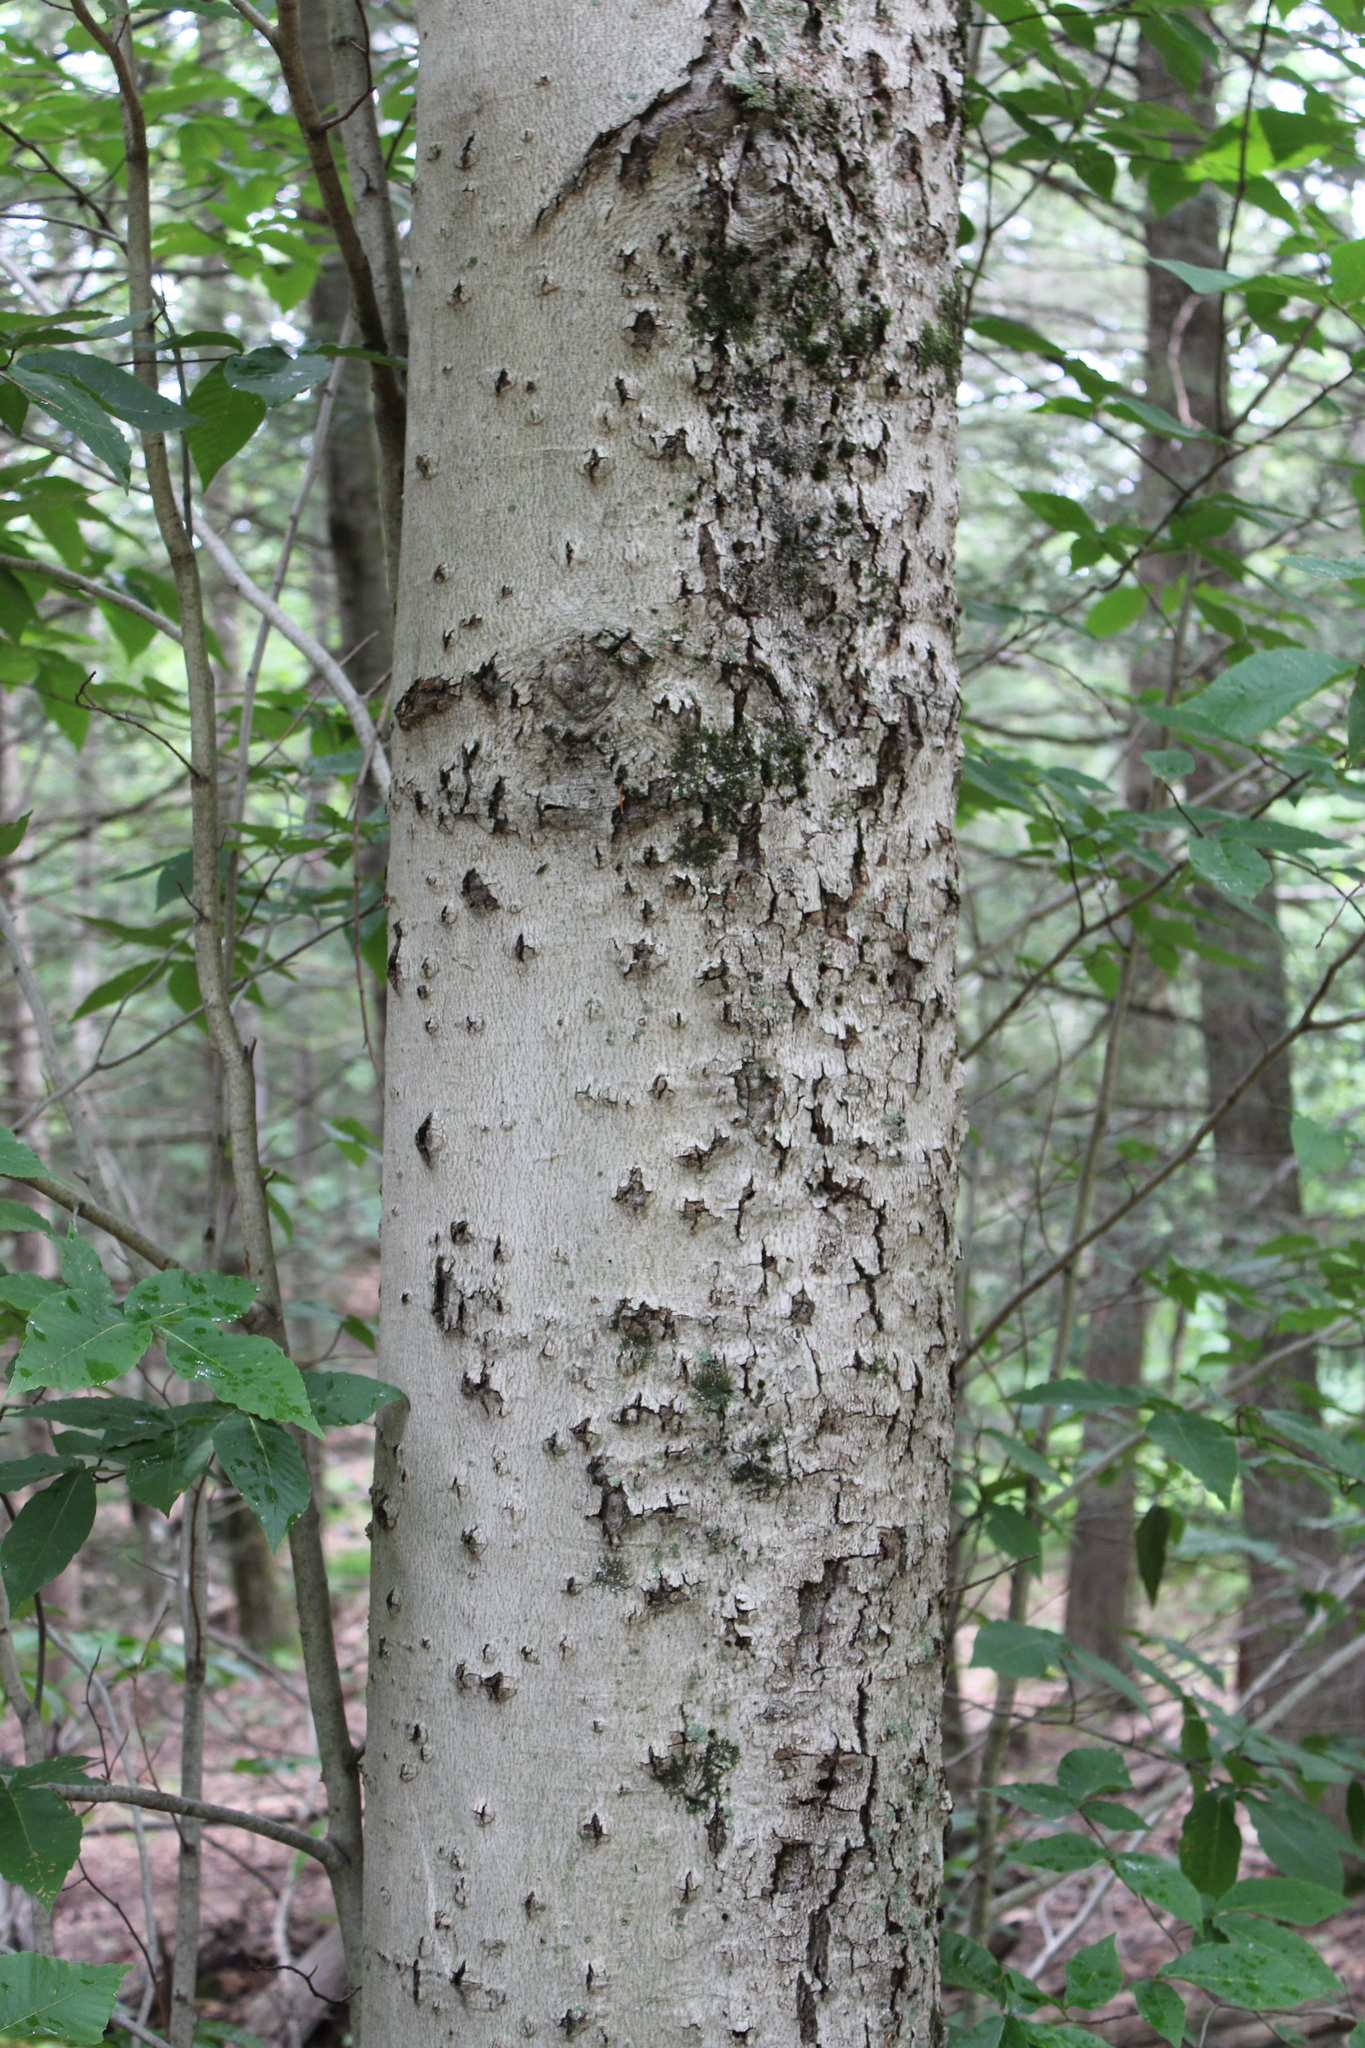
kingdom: Plantae
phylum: Tracheophyta
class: Magnoliopsida
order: Fagales
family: Fagaceae
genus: Fagus
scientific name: Fagus grandifolia
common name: American beech
